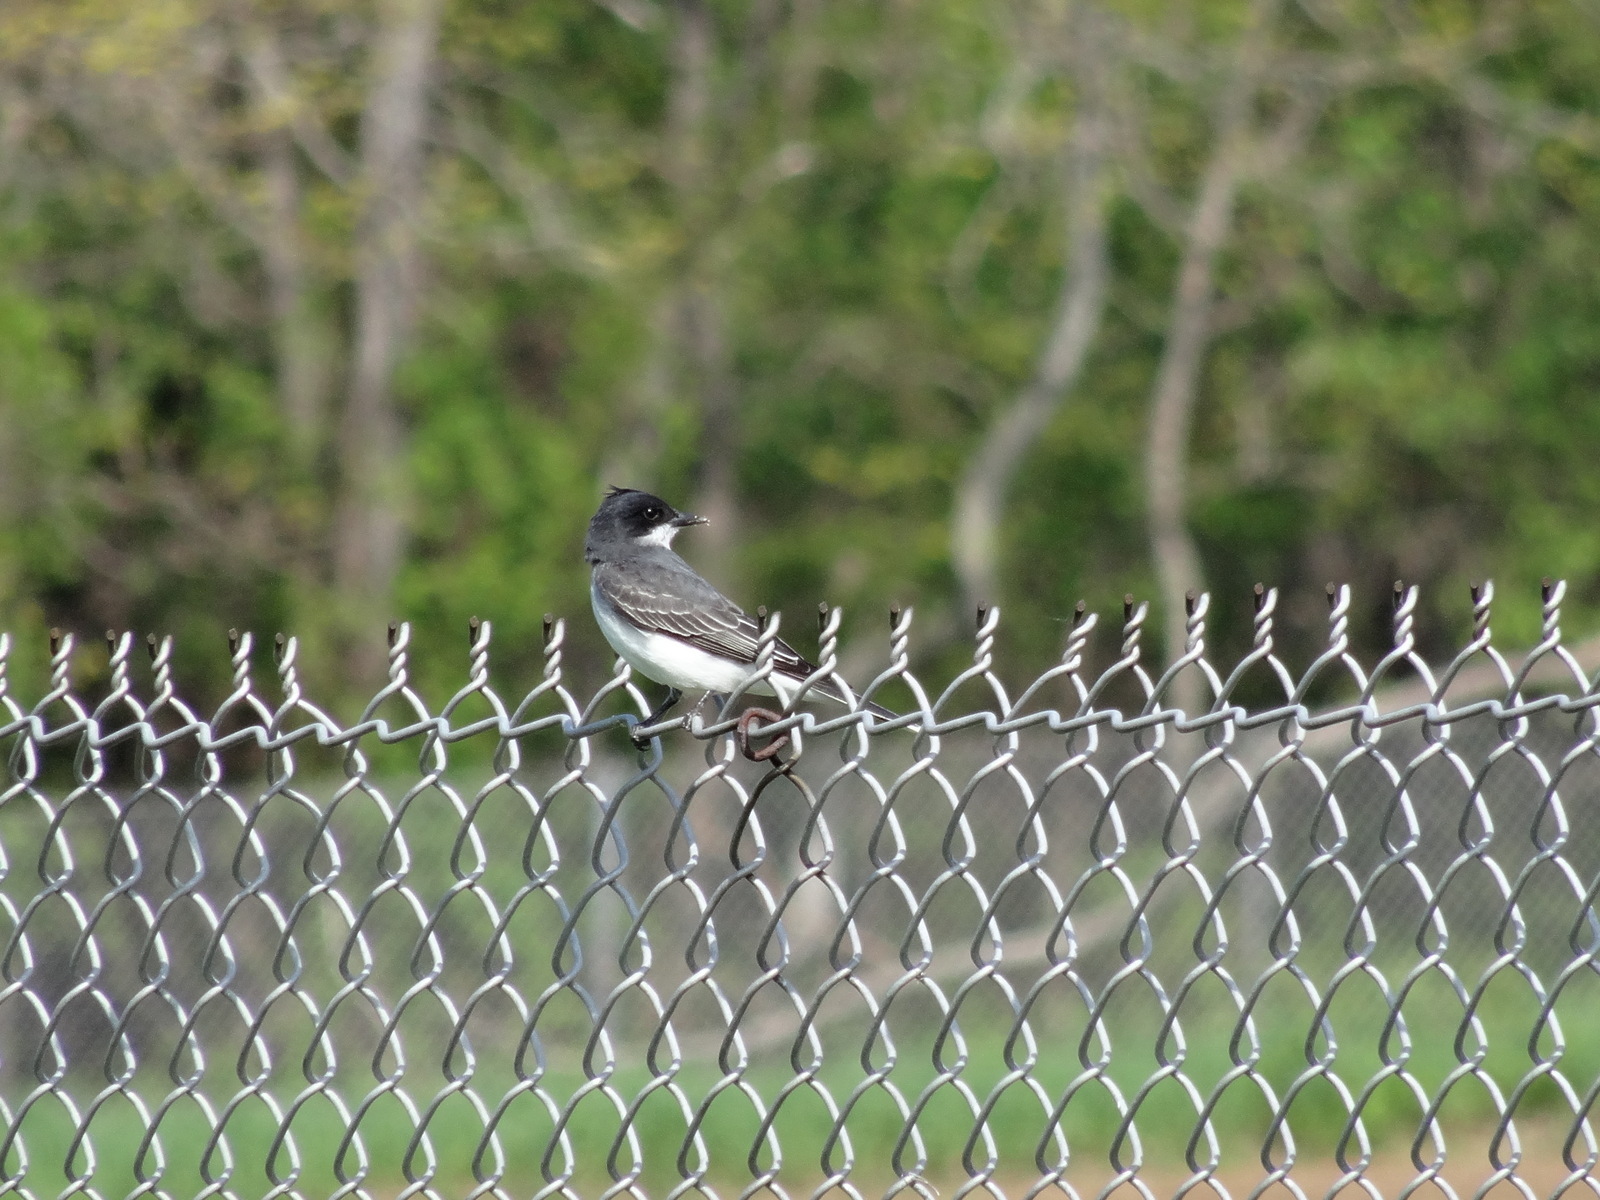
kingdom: Animalia
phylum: Chordata
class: Aves
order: Passeriformes
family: Tyrannidae
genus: Tyrannus
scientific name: Tyrannus tyrannus
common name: Eastern kingbird
